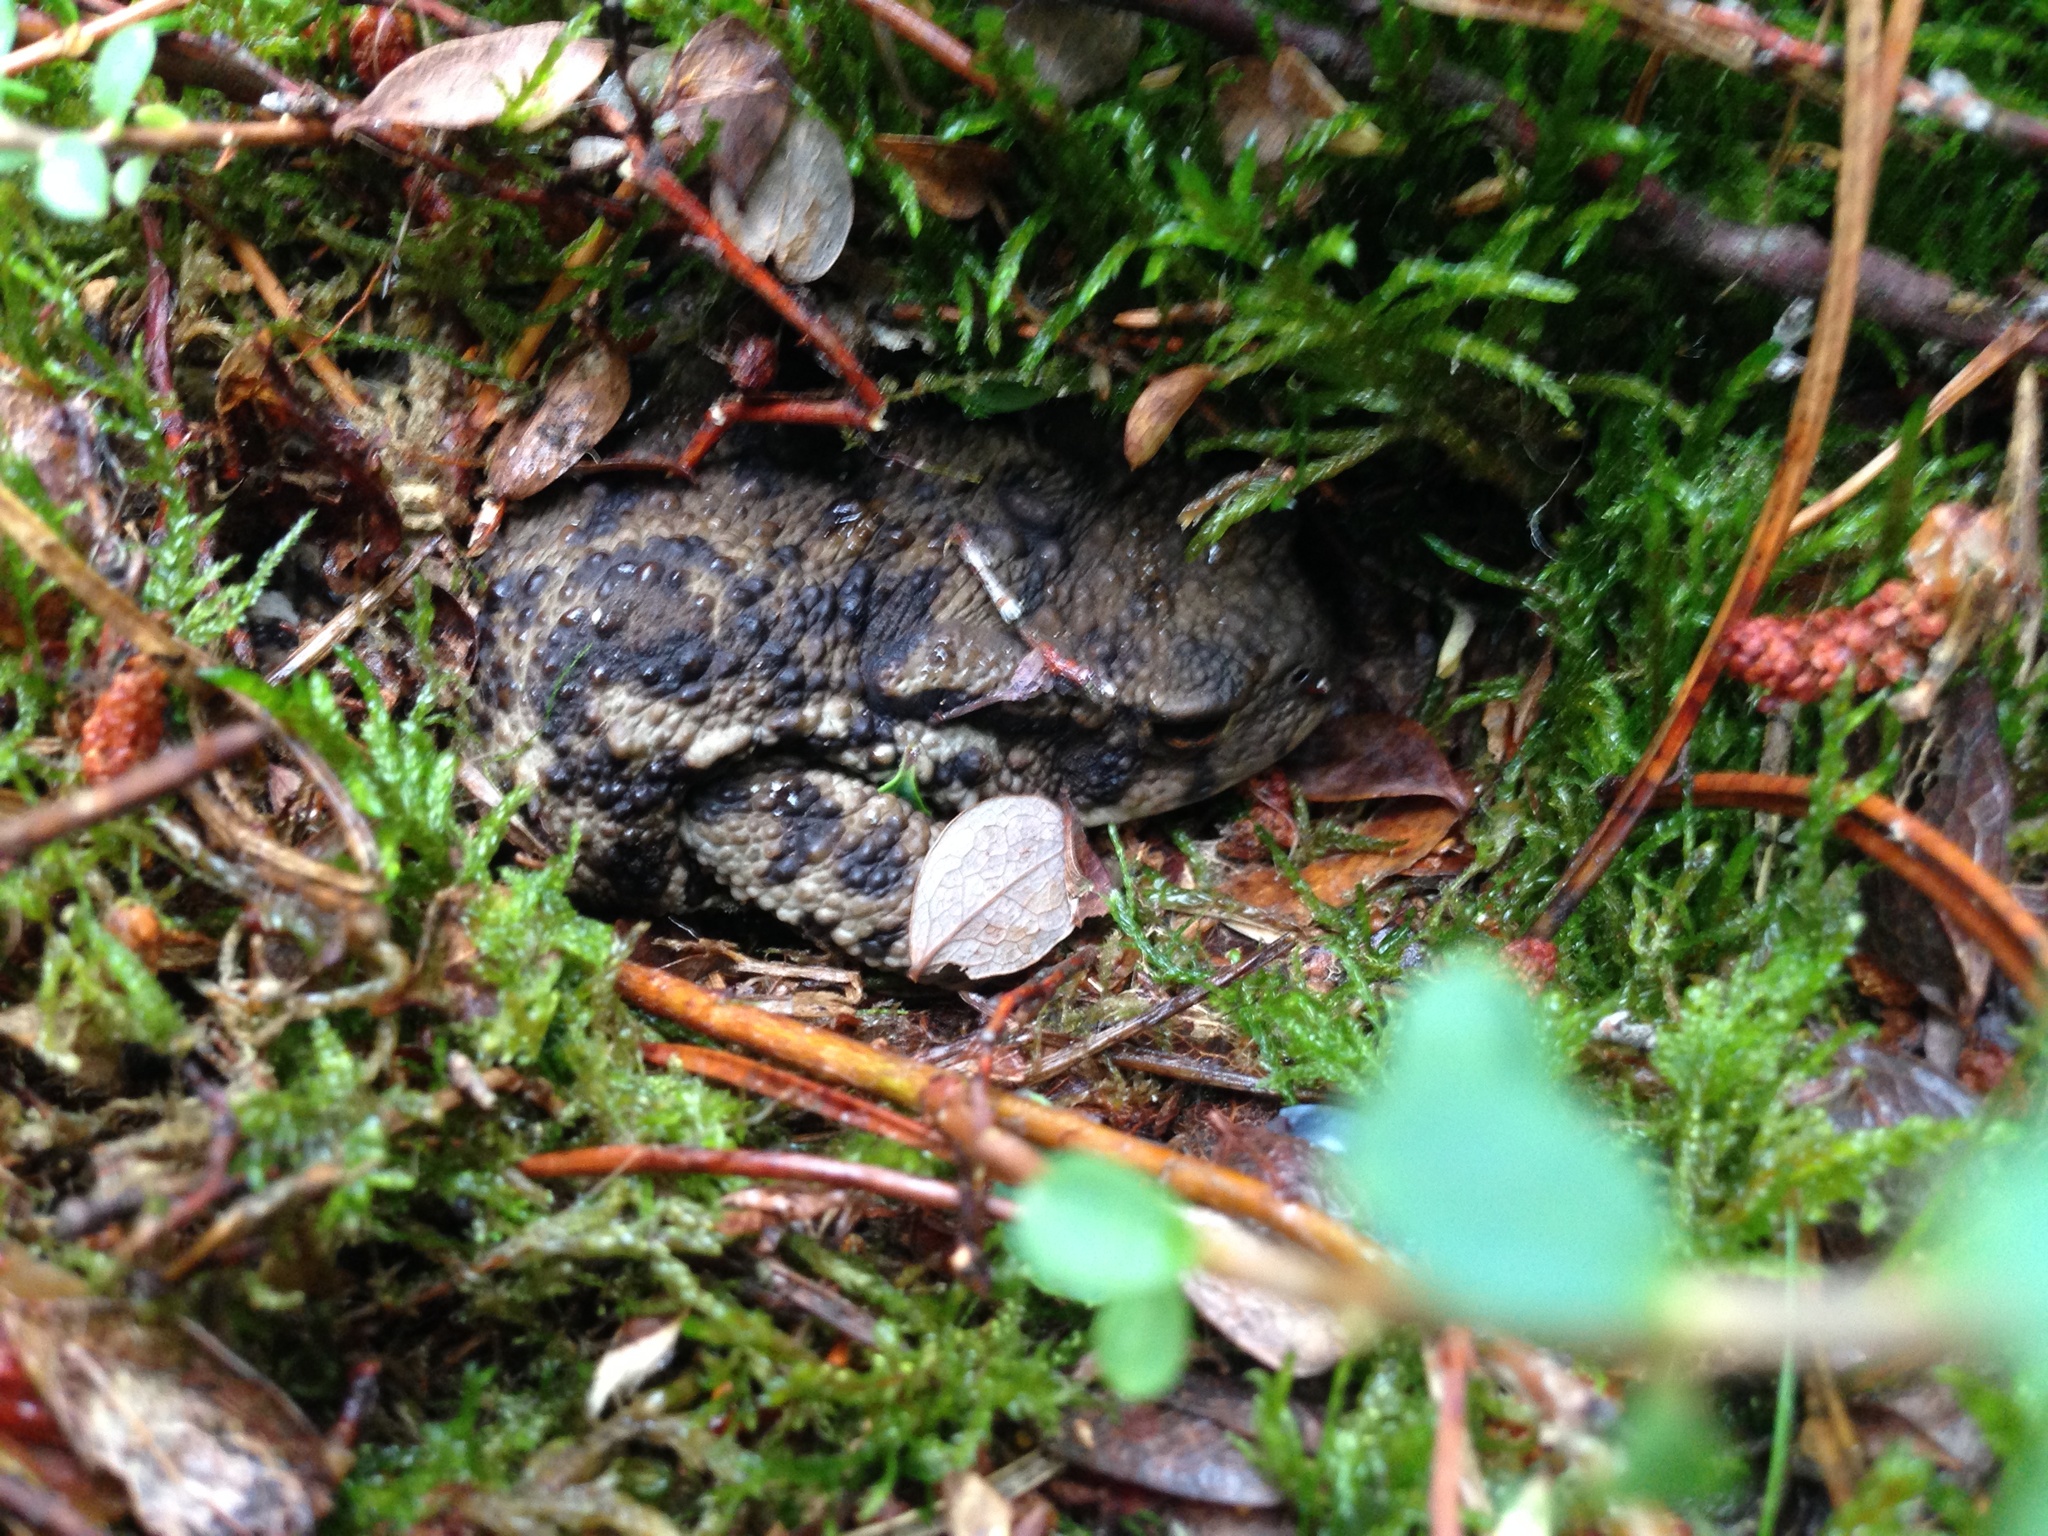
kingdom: Animalia
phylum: Chordata
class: Amphibia
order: Anura
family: Bufonidae
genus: Bufo
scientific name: Bufo bufo
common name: Common toad
